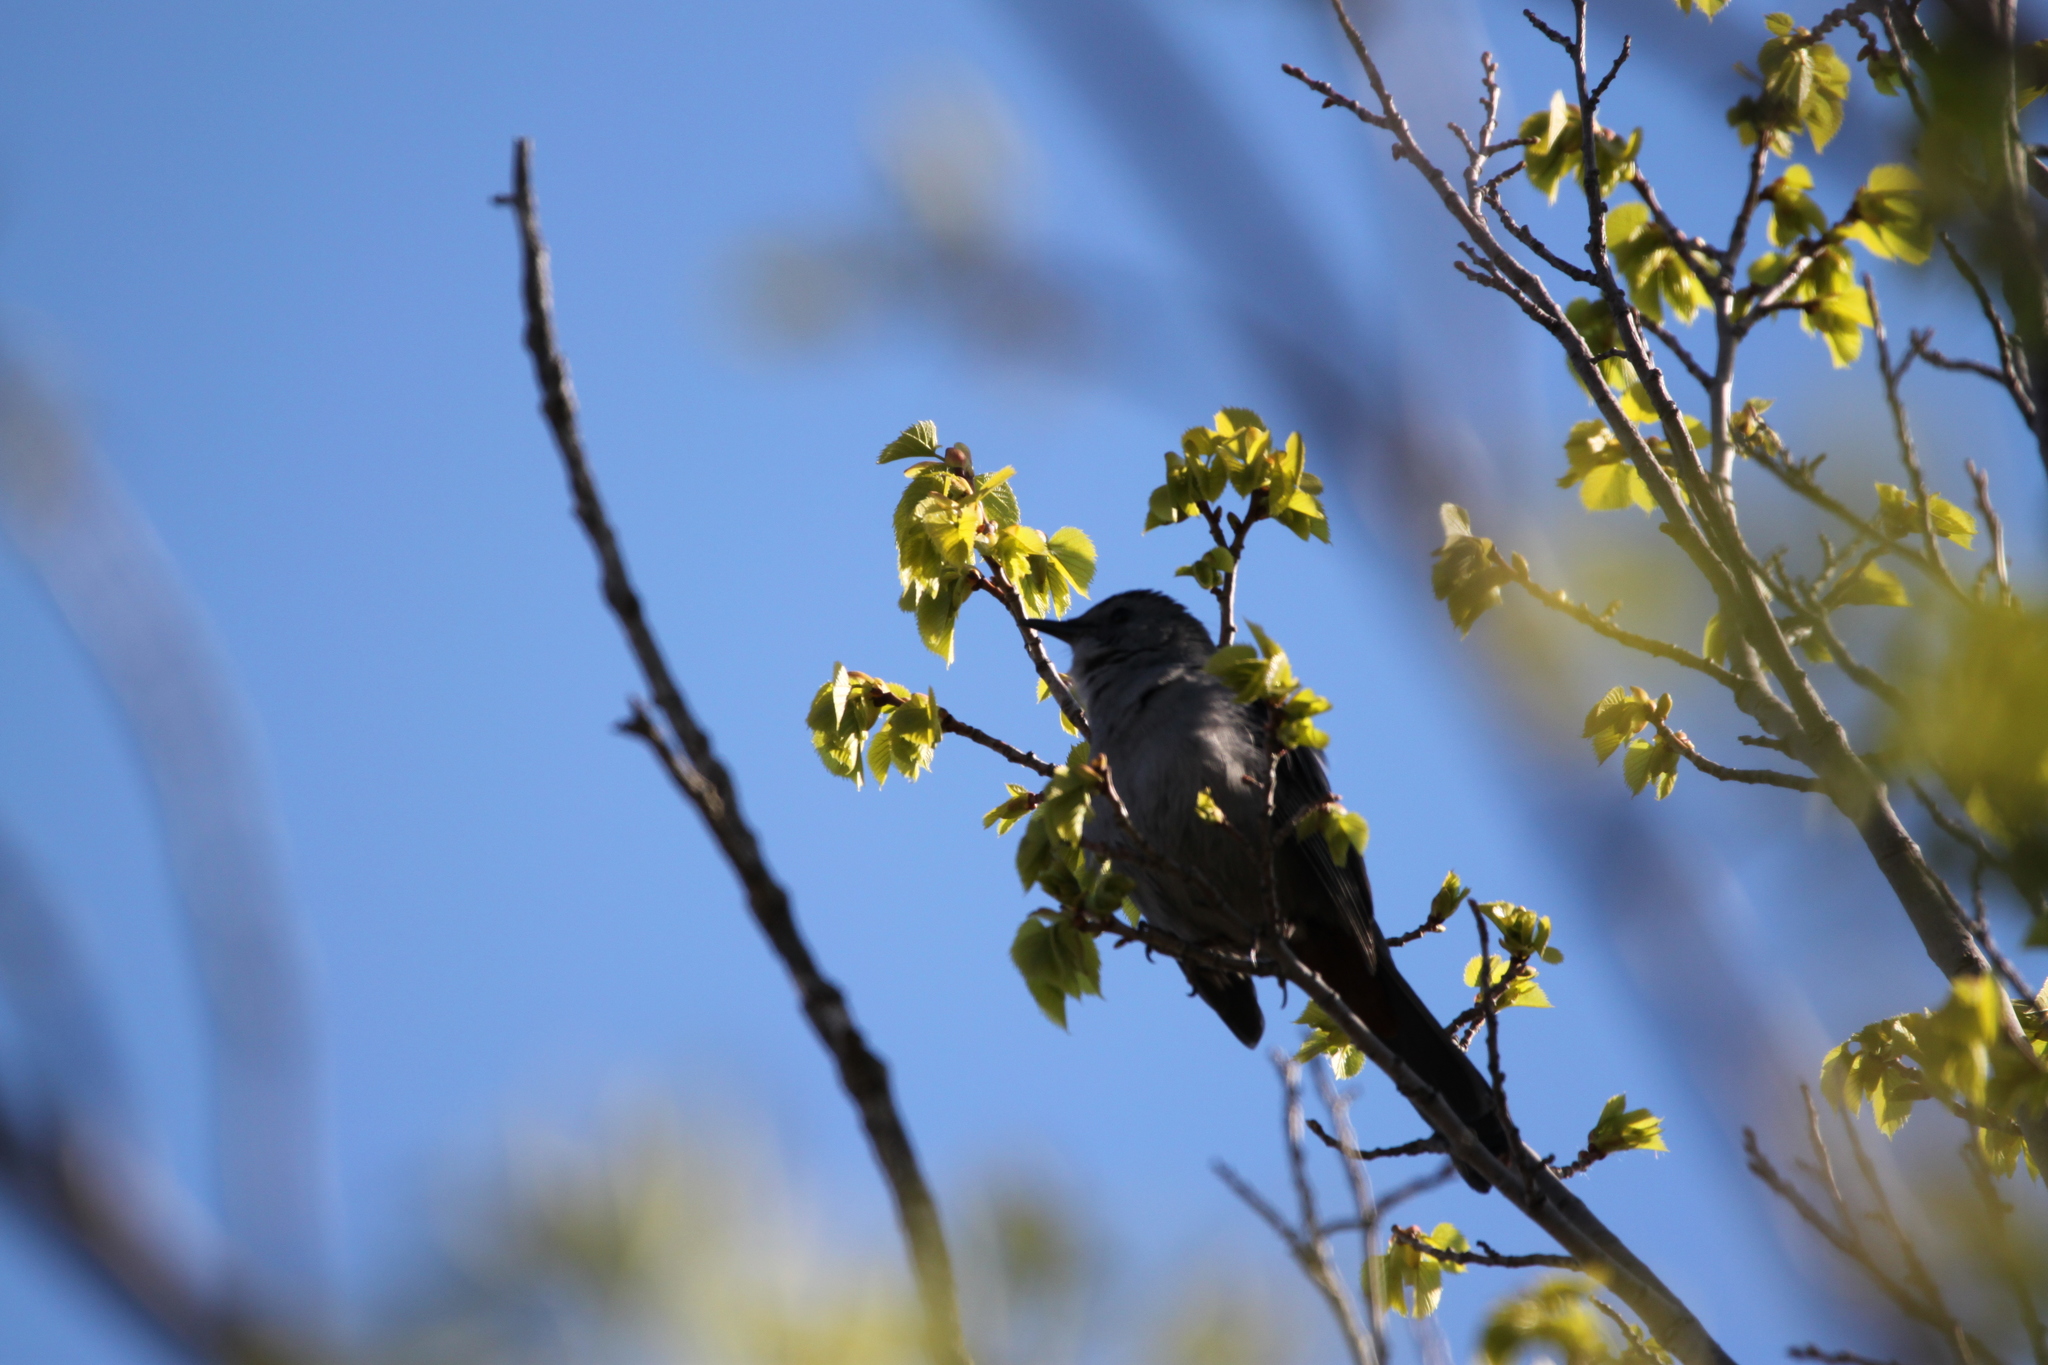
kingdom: Animalia
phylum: Chordata
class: Aves
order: Passeriformes
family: Mimidae
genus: Dumetella
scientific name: Dumetella carolinensis
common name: Gray catbird
